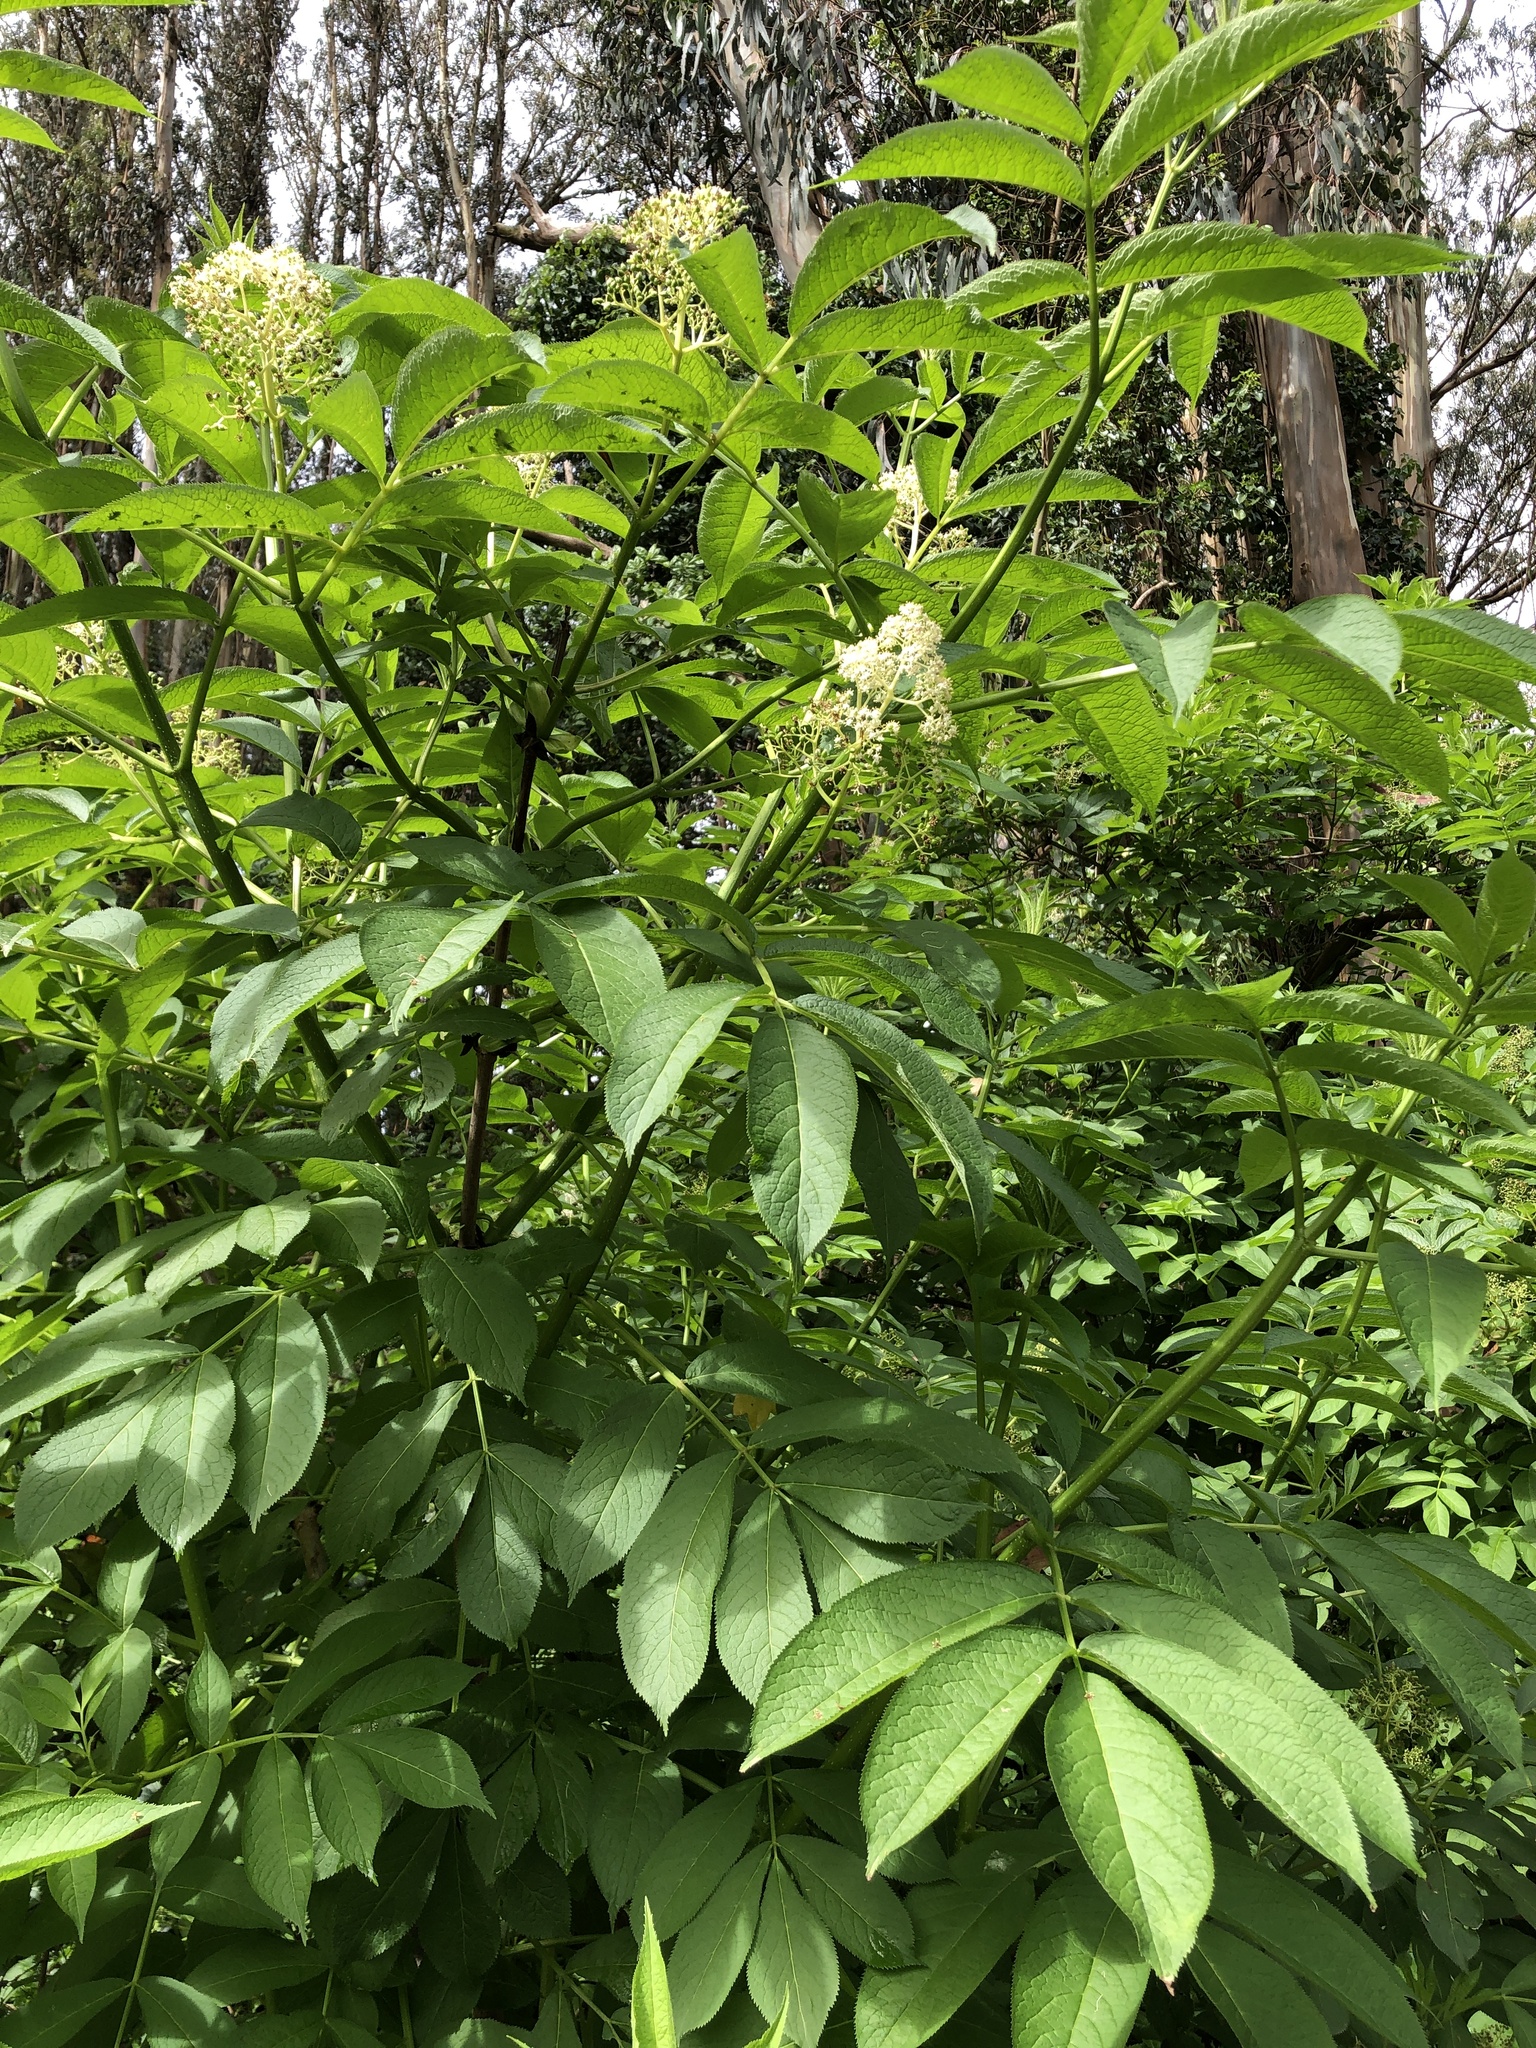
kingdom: Plantae
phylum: Tracheophyta
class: Magnoliopsida
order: Dipsacales
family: Viburnaceae
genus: Sambucus
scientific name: Sambucus racemosa
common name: Red-berried elder
